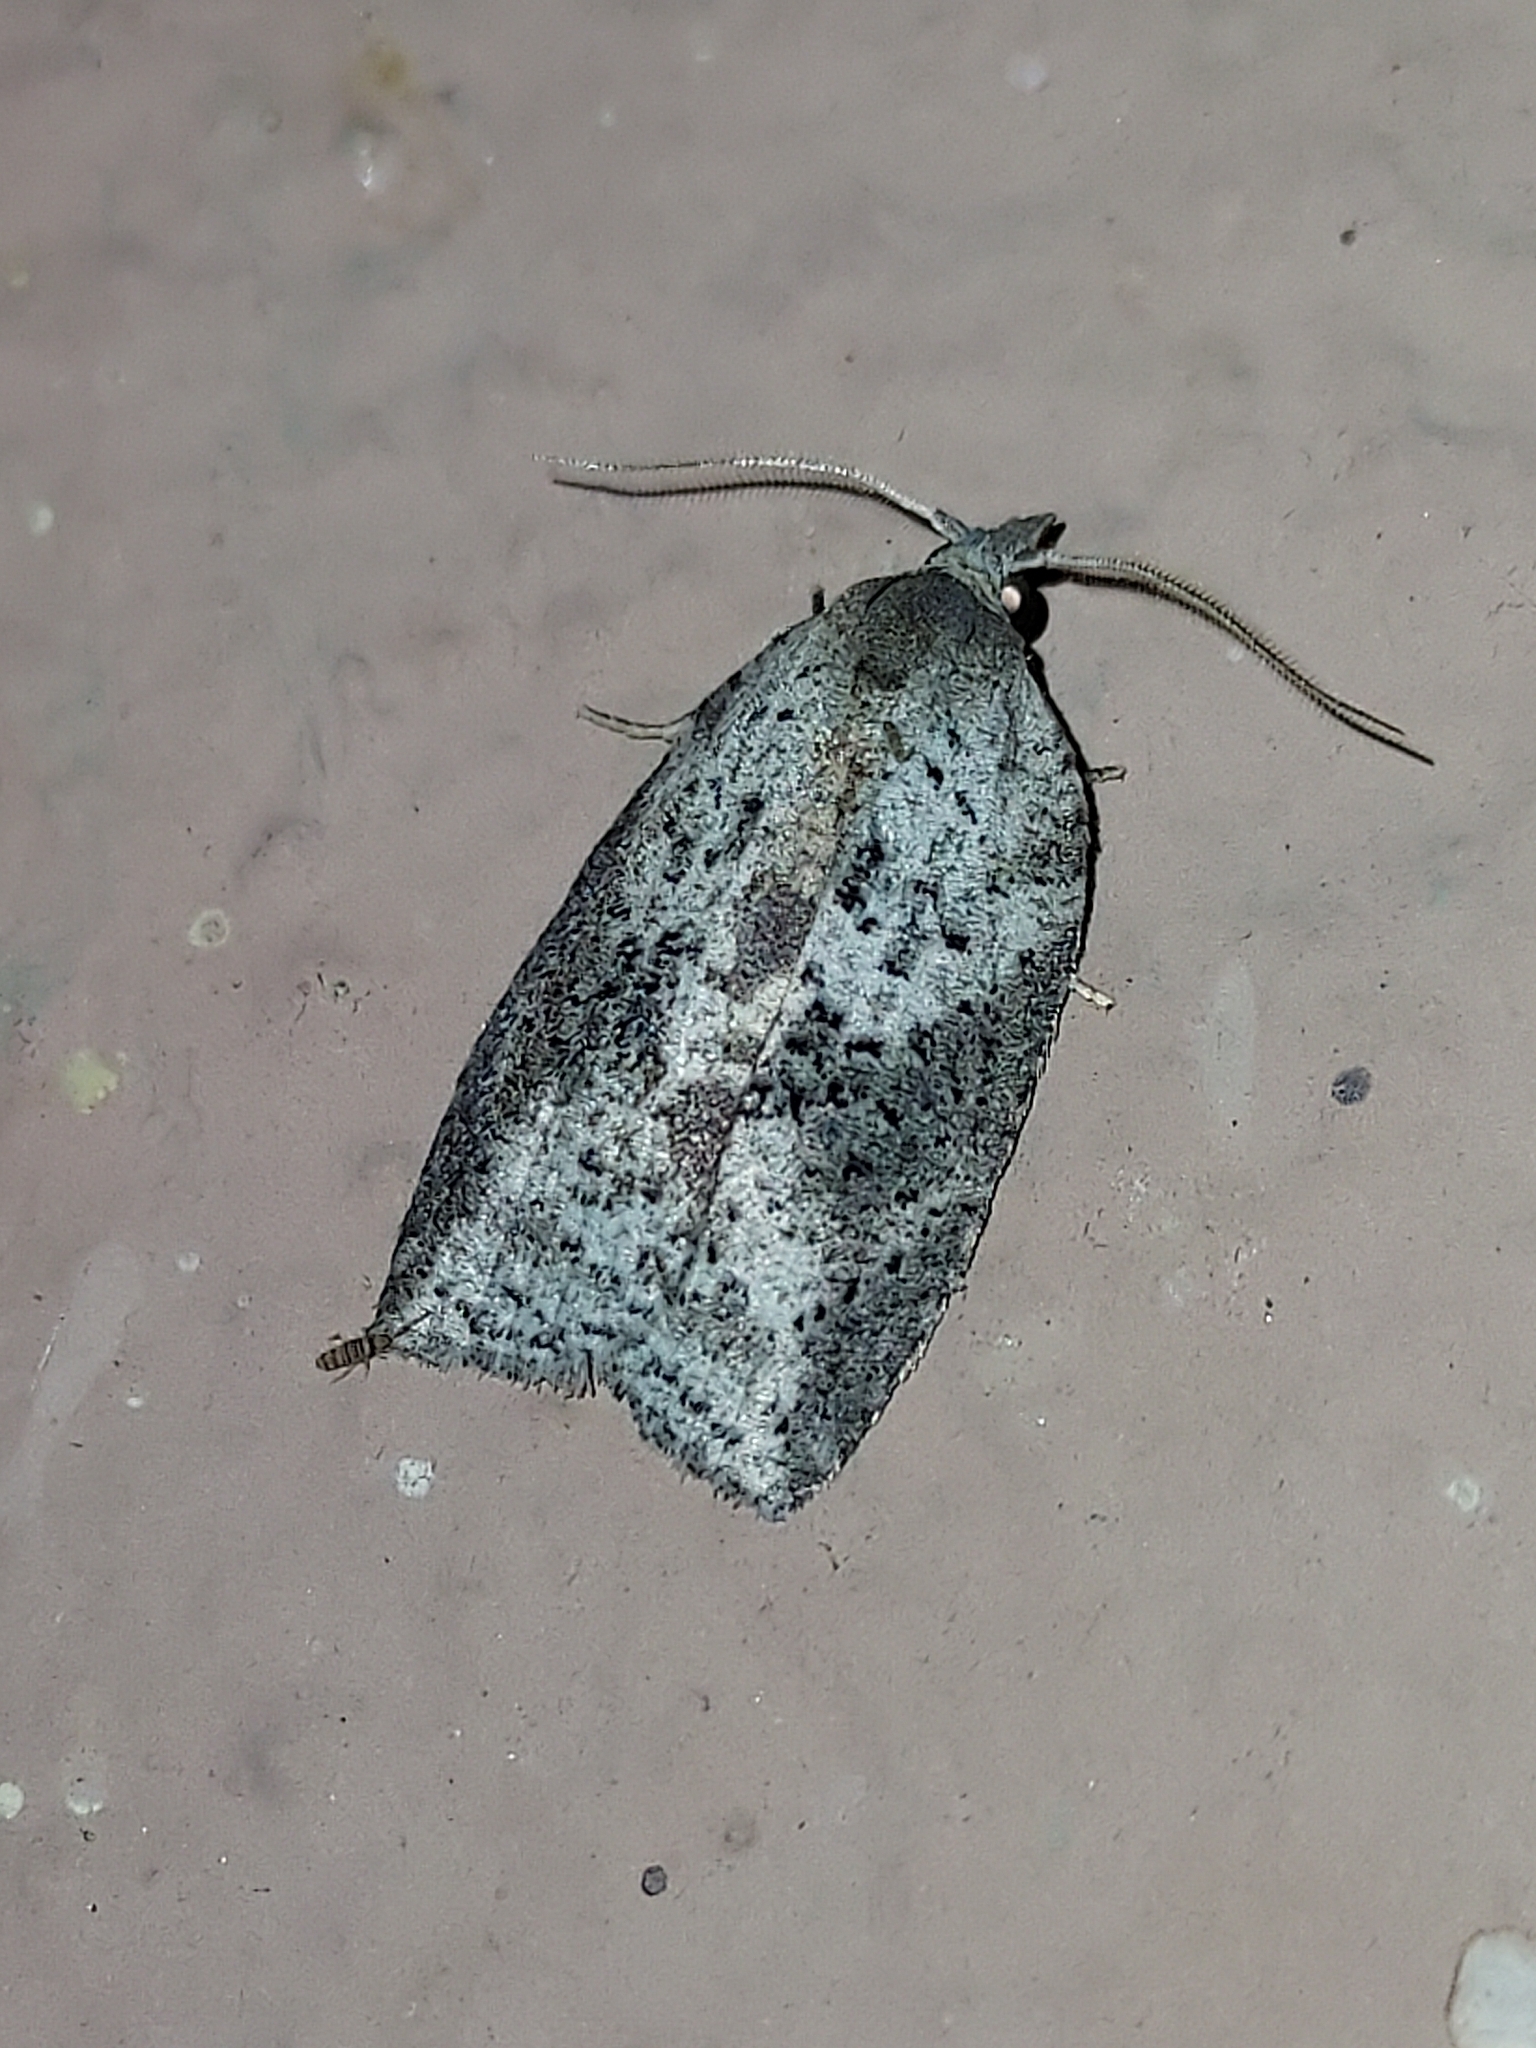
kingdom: Animalia
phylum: Arthropoda
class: Insecta
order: Lepidoptera
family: Tortricidae
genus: Amorbia
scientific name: Amorbia humerosana
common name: White-lined leafroller moth
